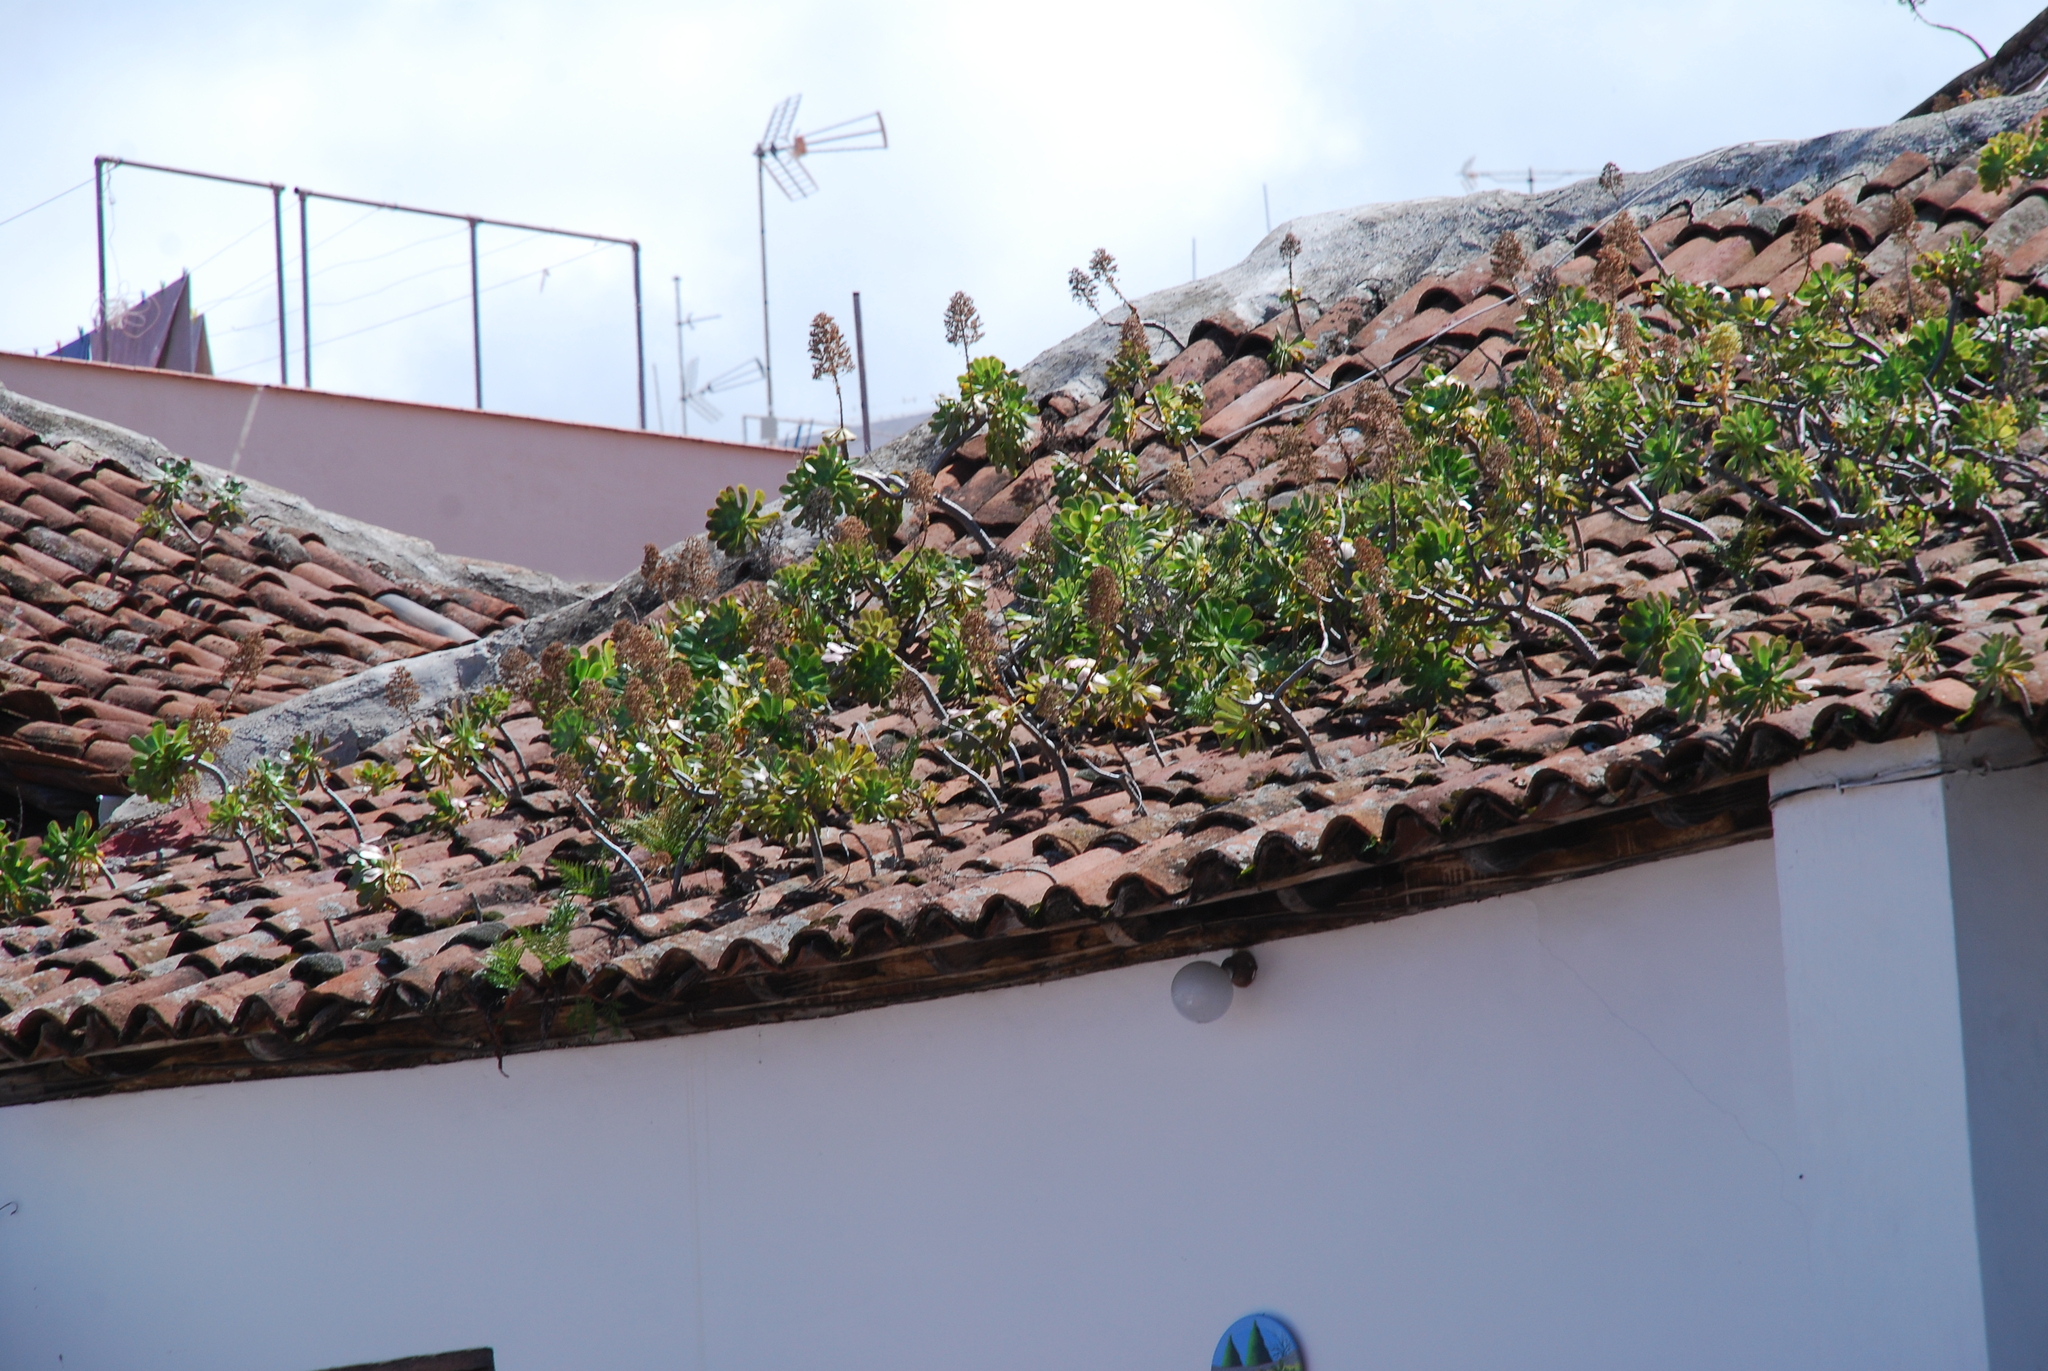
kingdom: Plantae
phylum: Tracheophyta
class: Magnoliopsida
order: Saxifragales
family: Crassulaceae
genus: Aeonium
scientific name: Aeonium arboreum
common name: Tree aeonium
